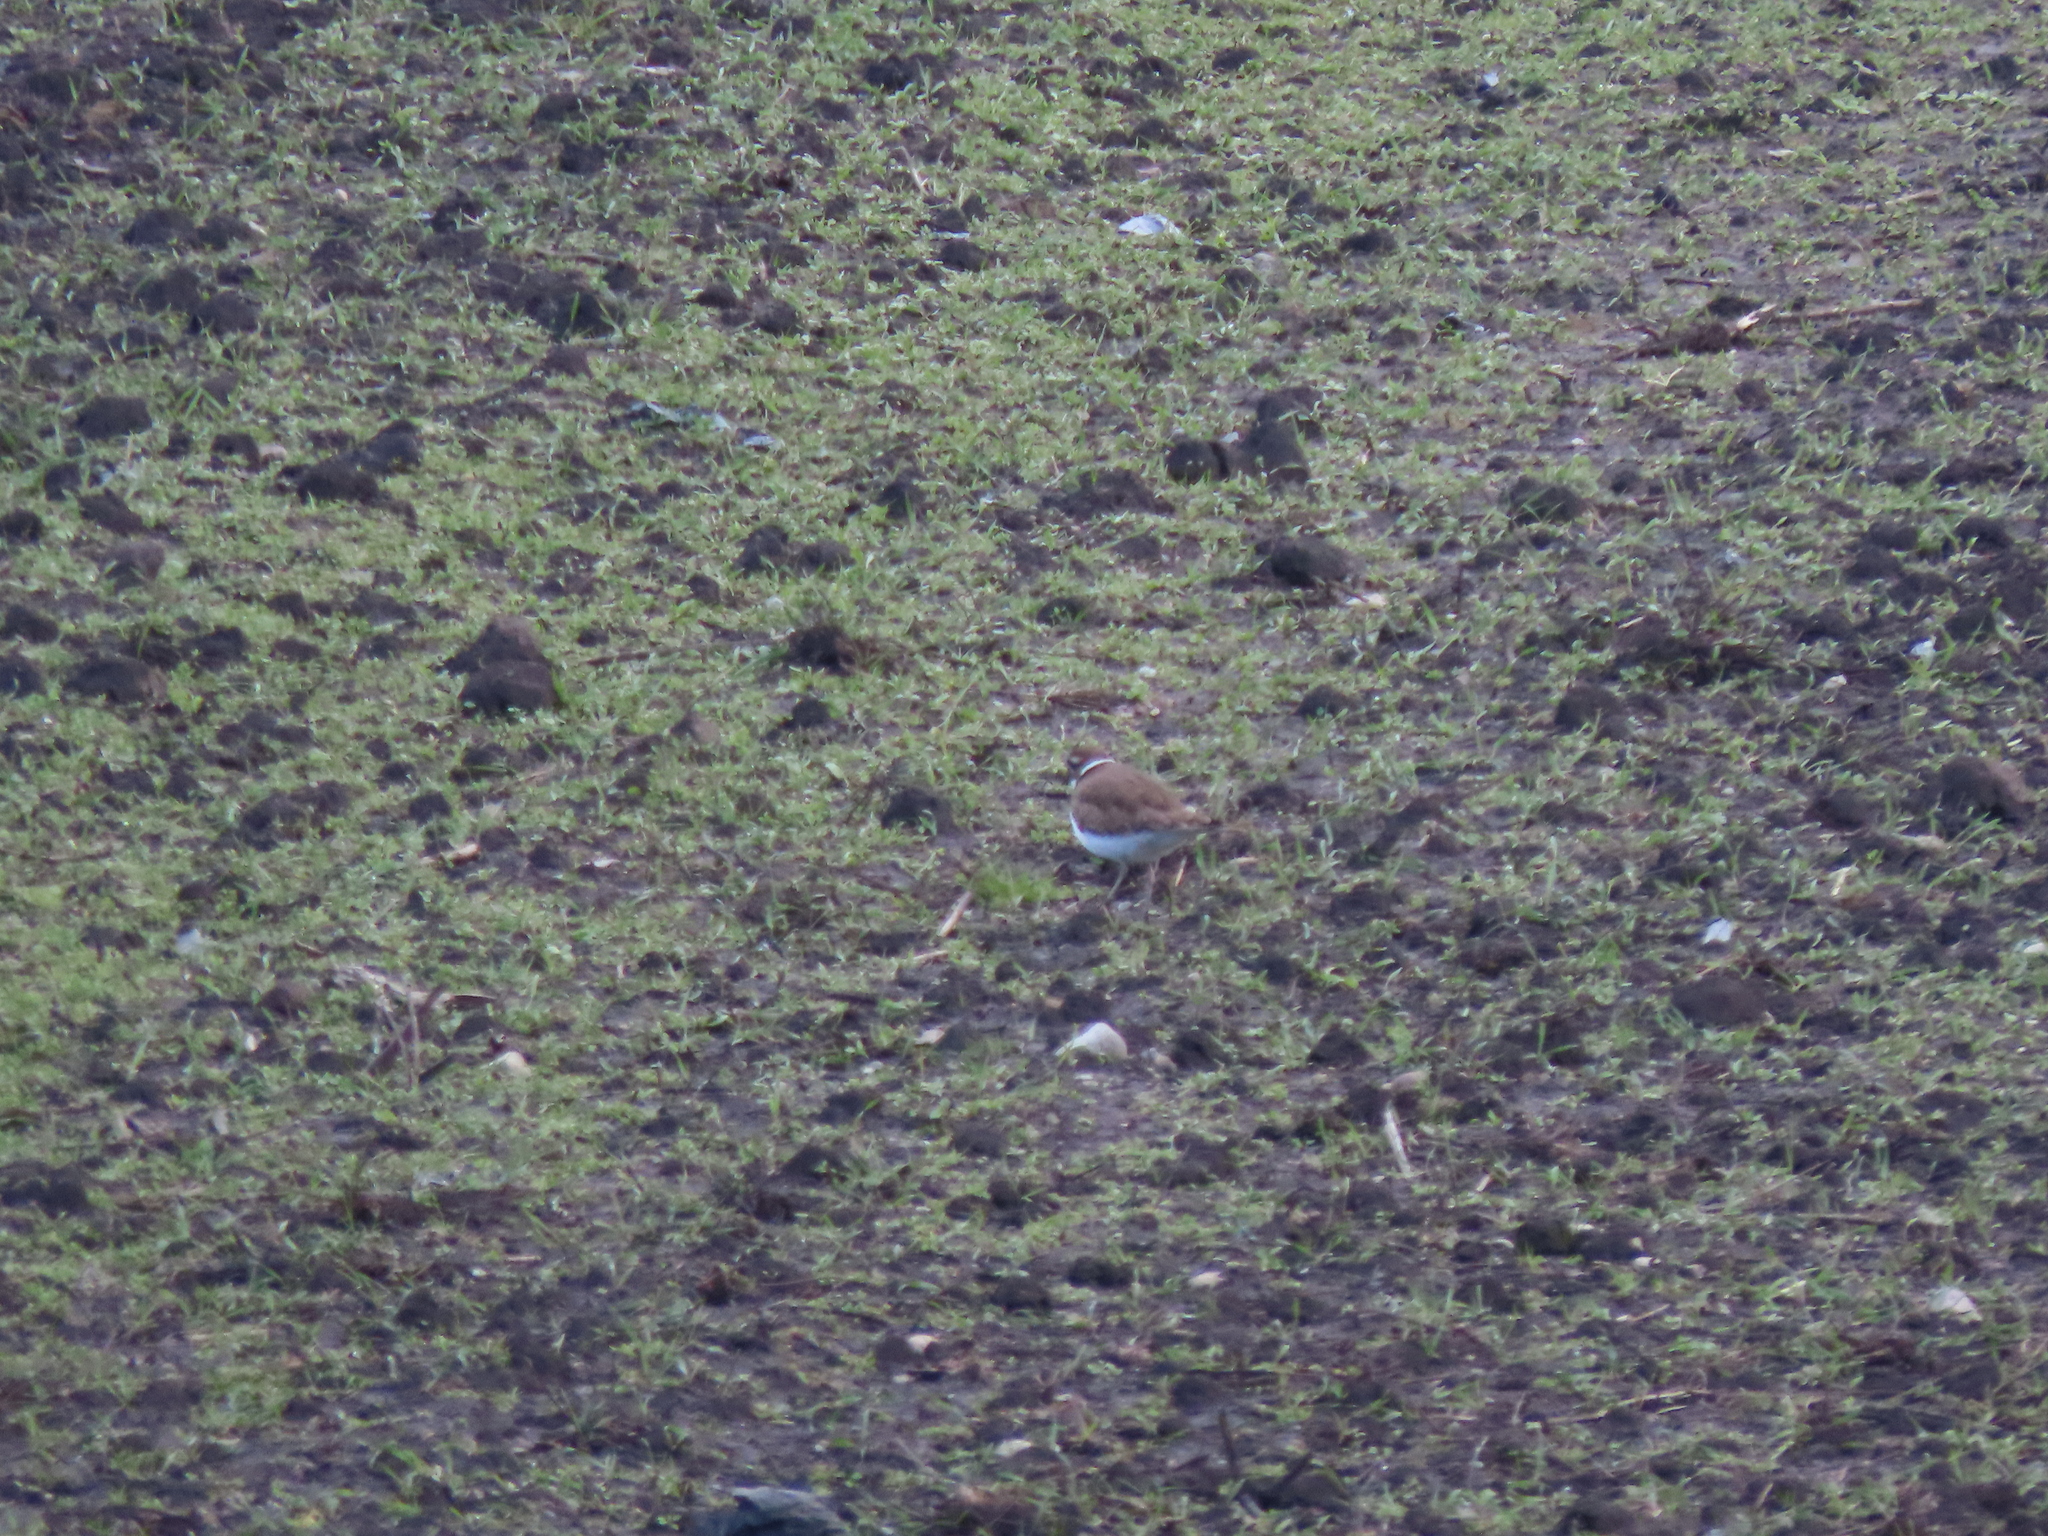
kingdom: Animalia
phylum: Chordata
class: Aves
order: Charadriiformes
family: Charadriidae
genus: Charadrius
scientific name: Charadrius vociferus
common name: Killdeer
